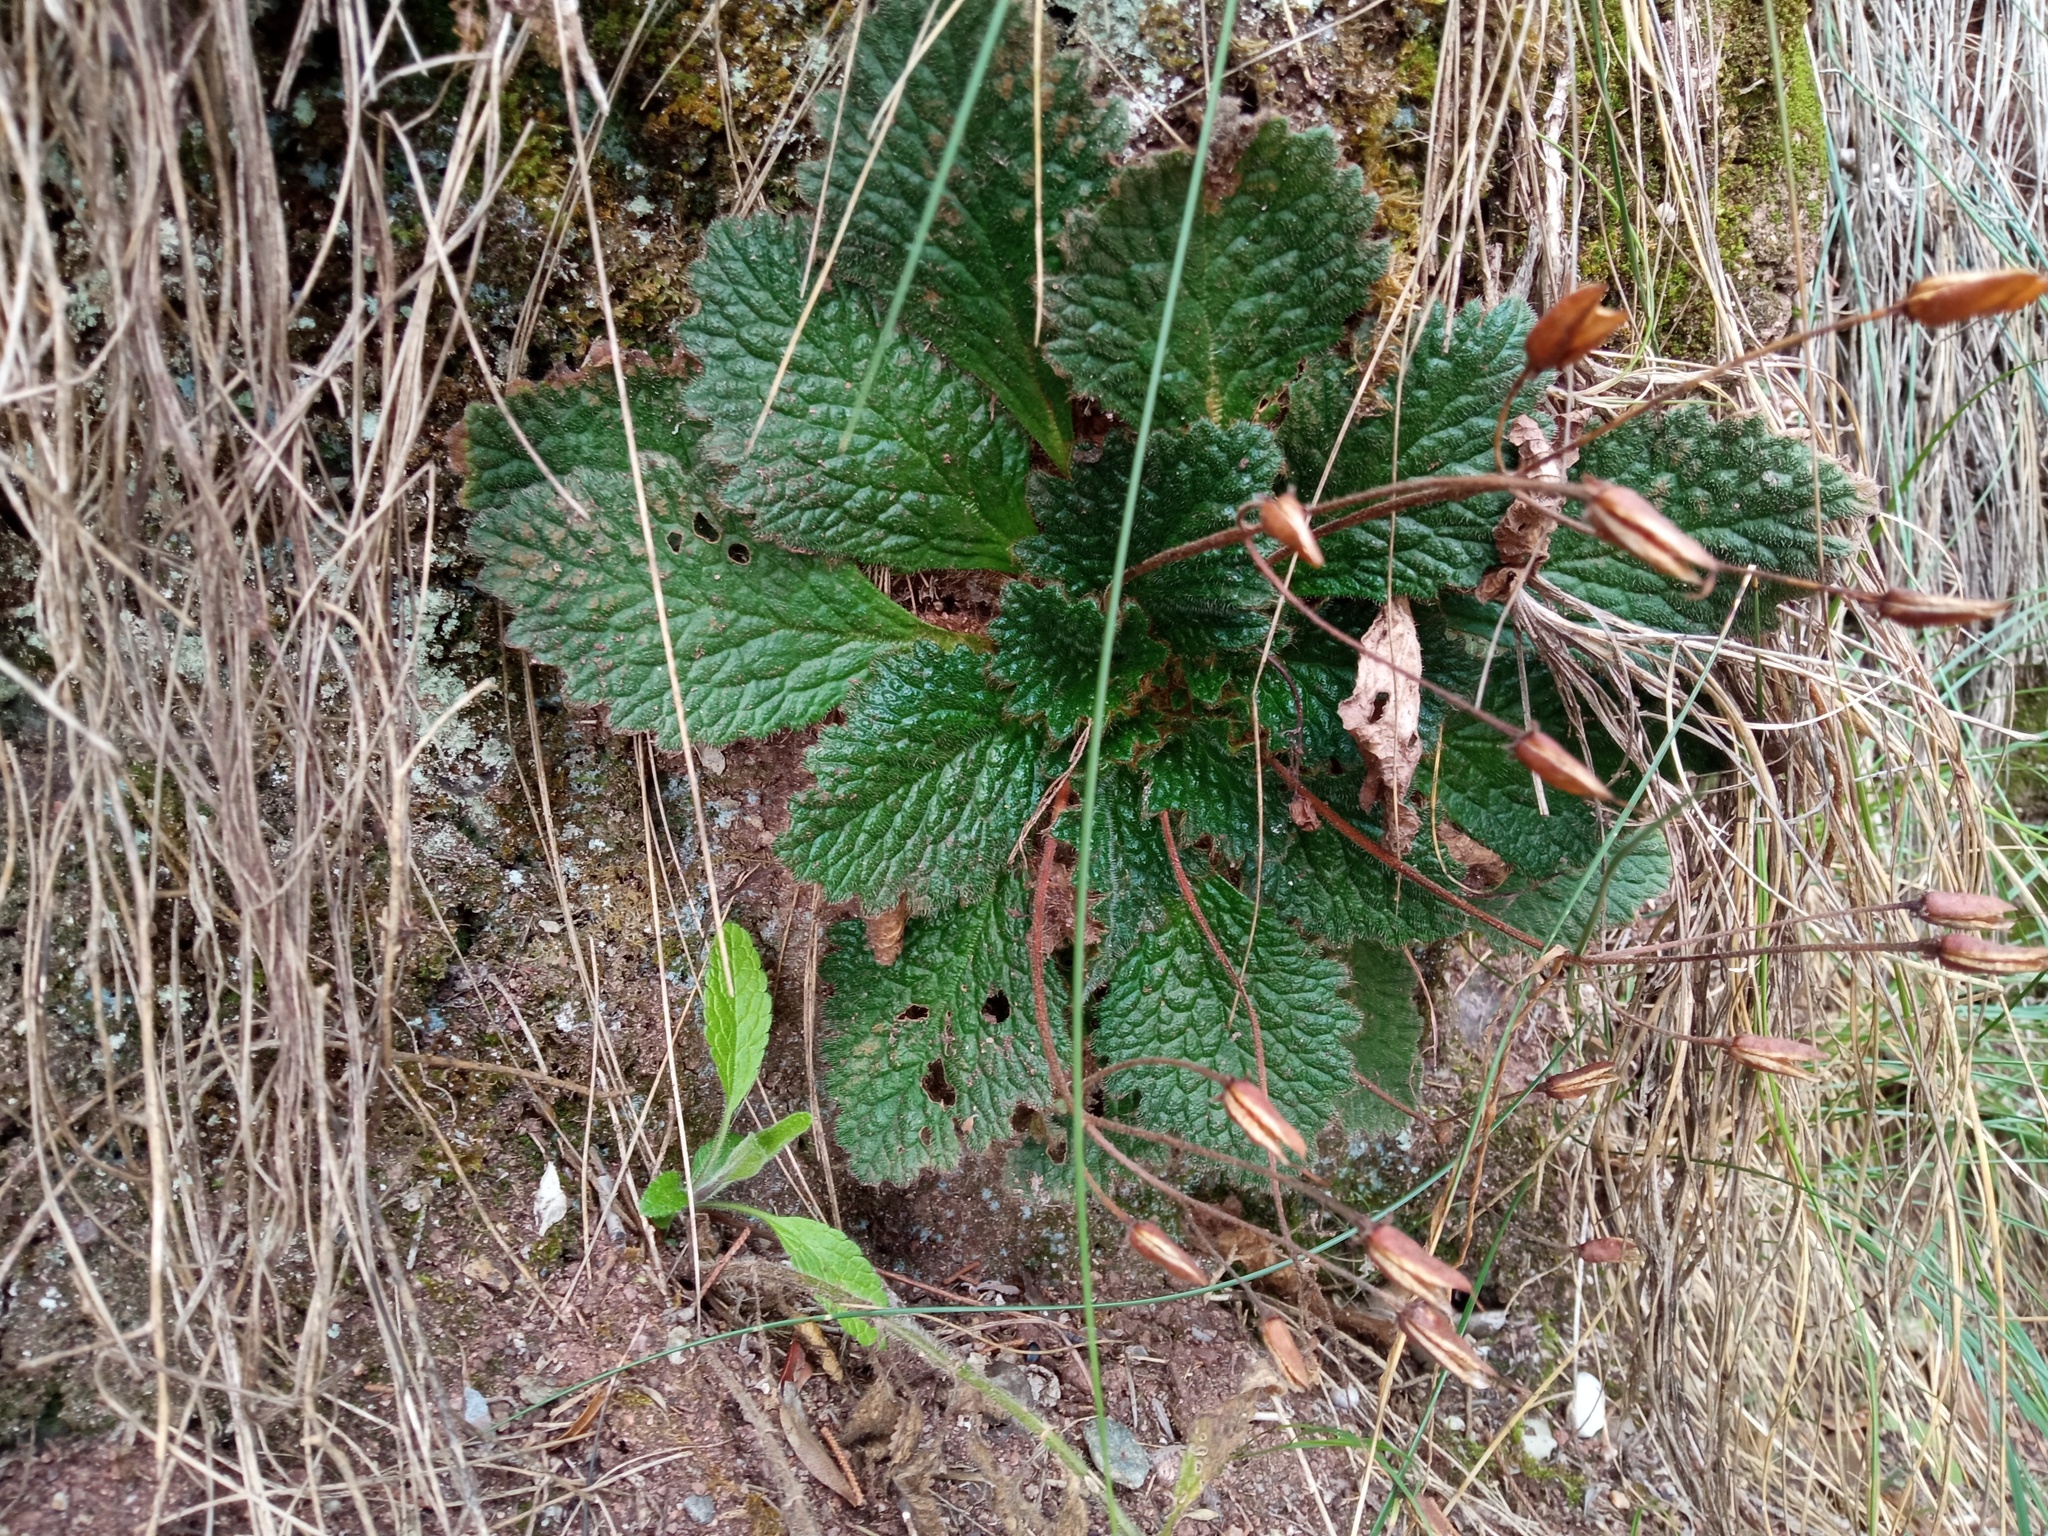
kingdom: Plantae
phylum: Tracheophyta
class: Magnoliopsida
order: Lamiales
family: Gesneriaceae
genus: Ramonda
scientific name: Ramonda myconi
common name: Pyrenean-violet
